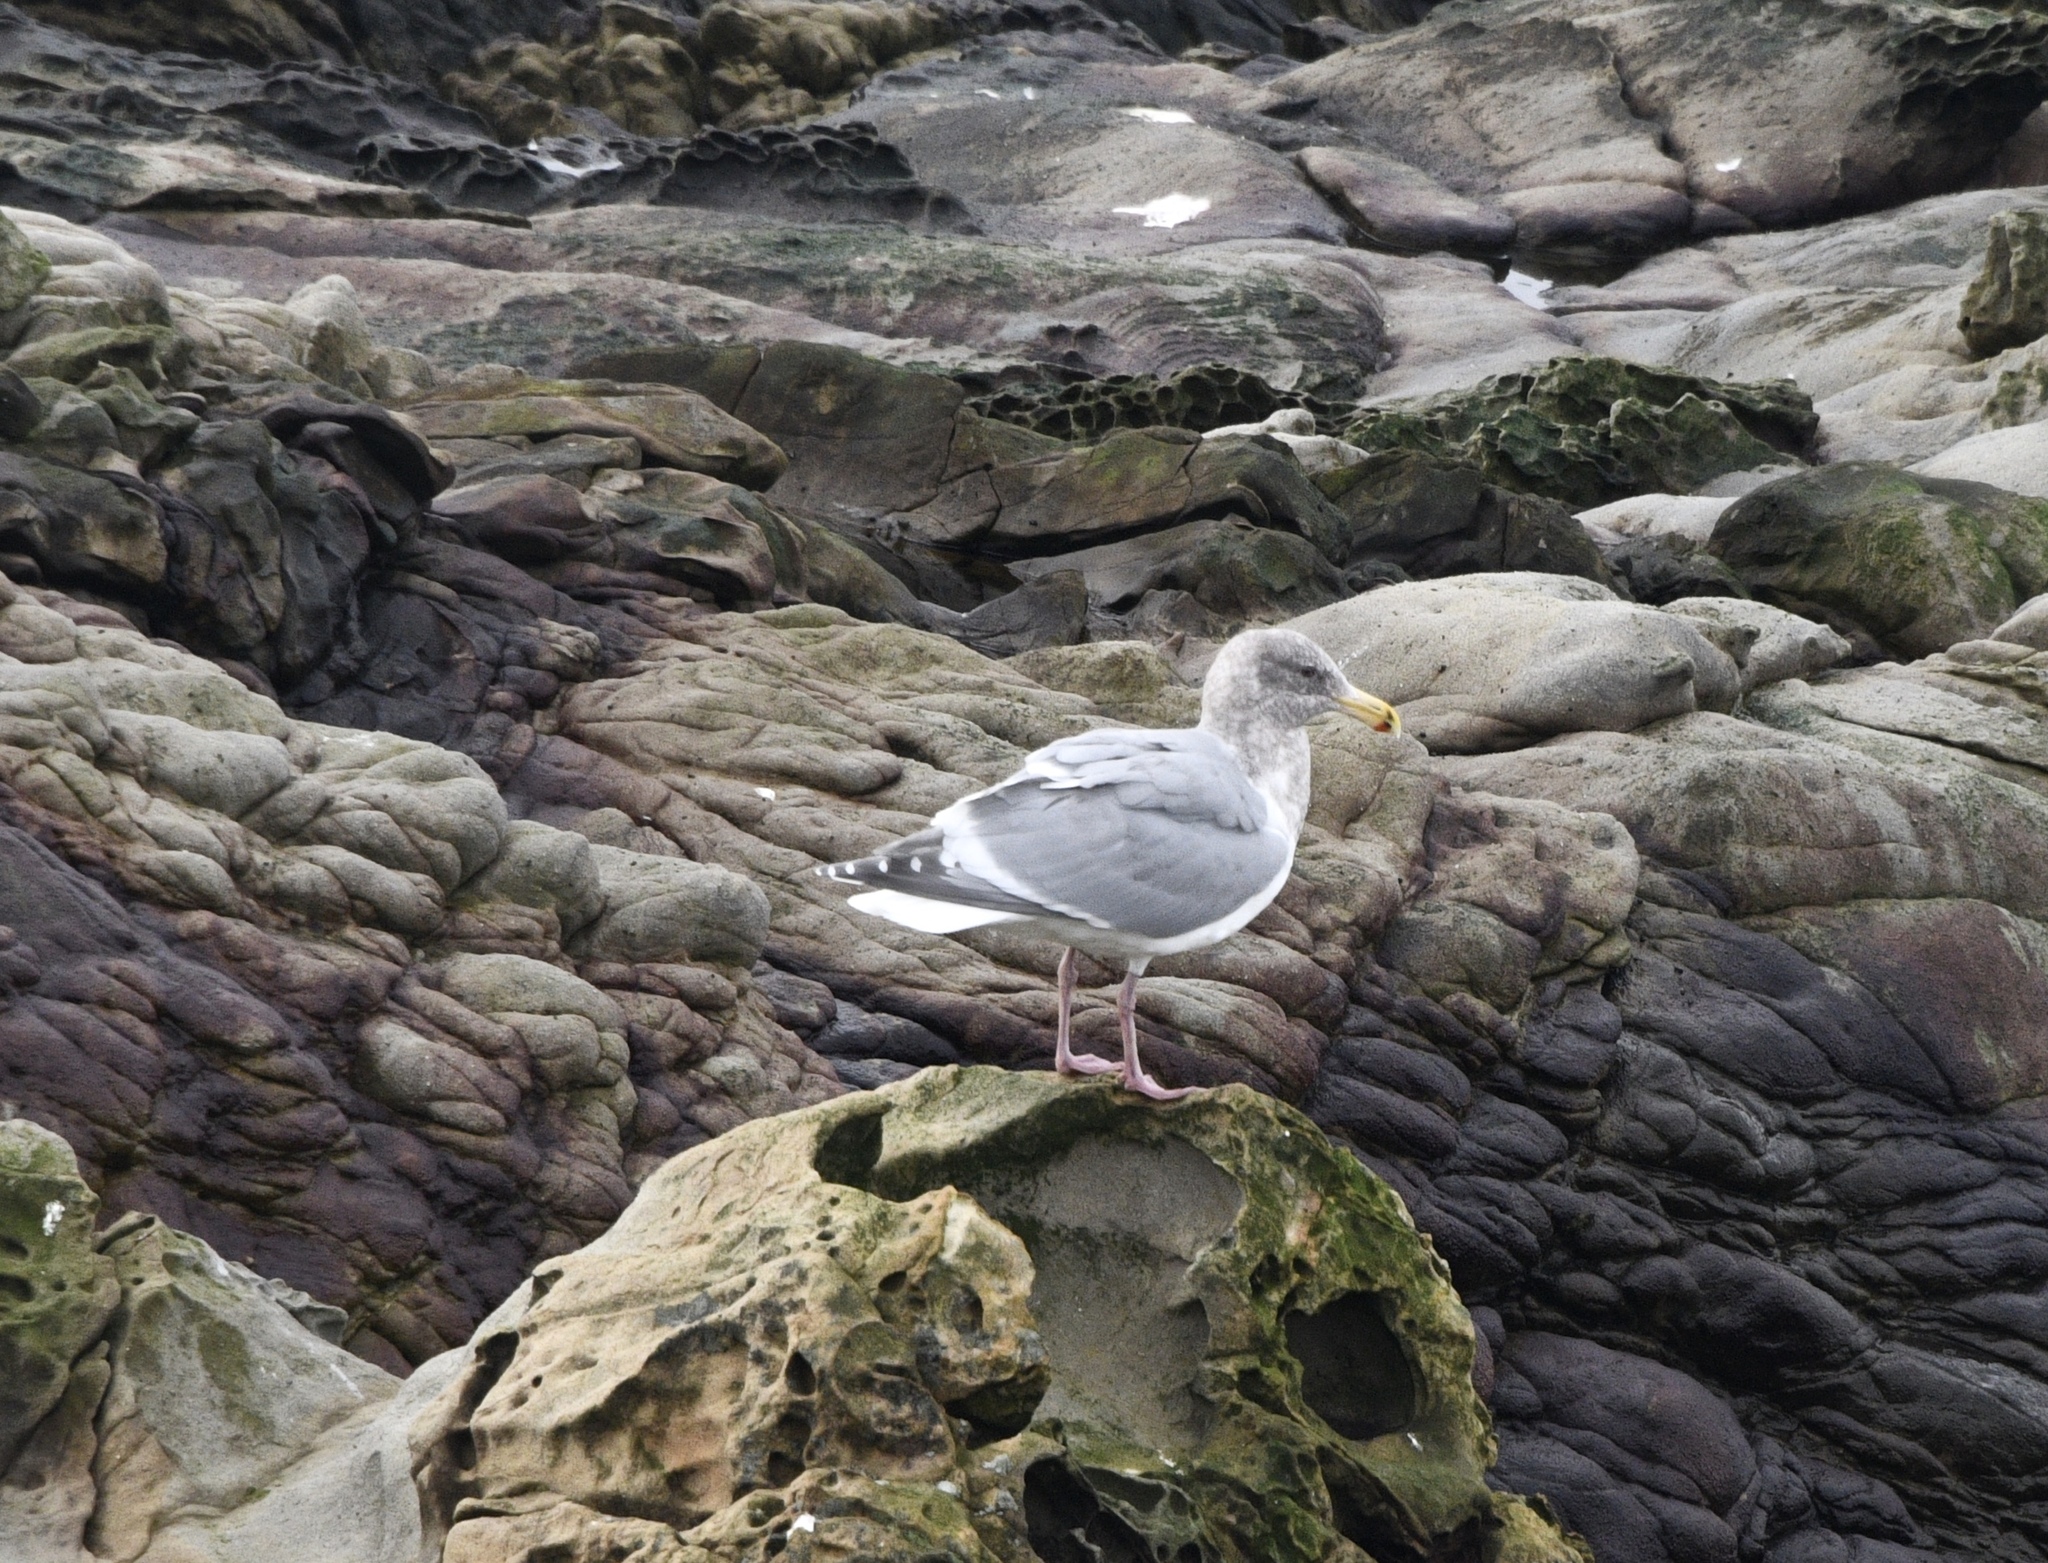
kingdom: Animalia
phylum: Chordata
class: Aves
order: Charadriiformes
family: Laridae
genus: Larus
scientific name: Larus
